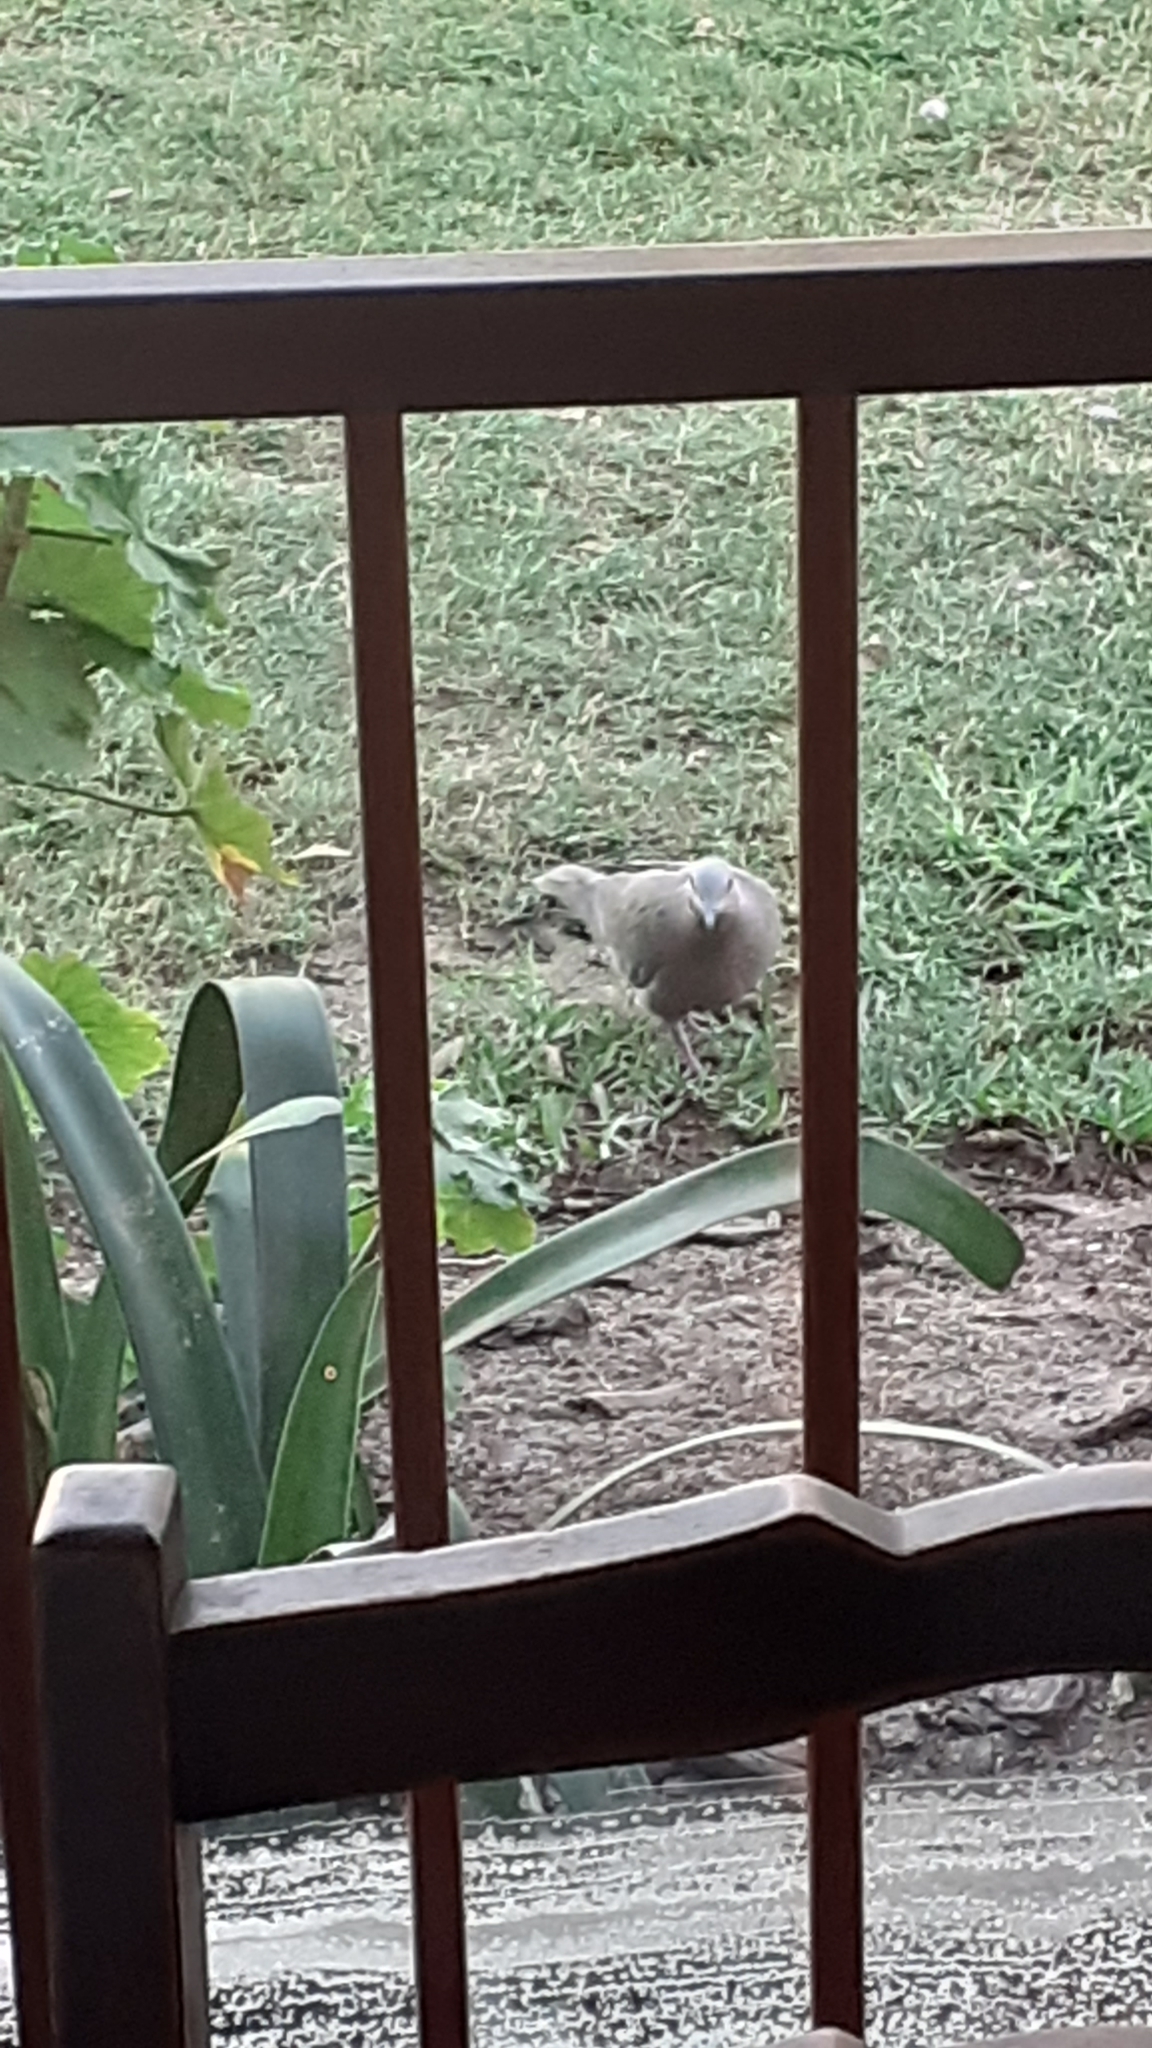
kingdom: Animalia
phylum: Chordata
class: Aves
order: Columbiformes
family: Columbidae
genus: Streptopelia
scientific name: Streptopelia semitorquata
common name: Red-eyed dove
